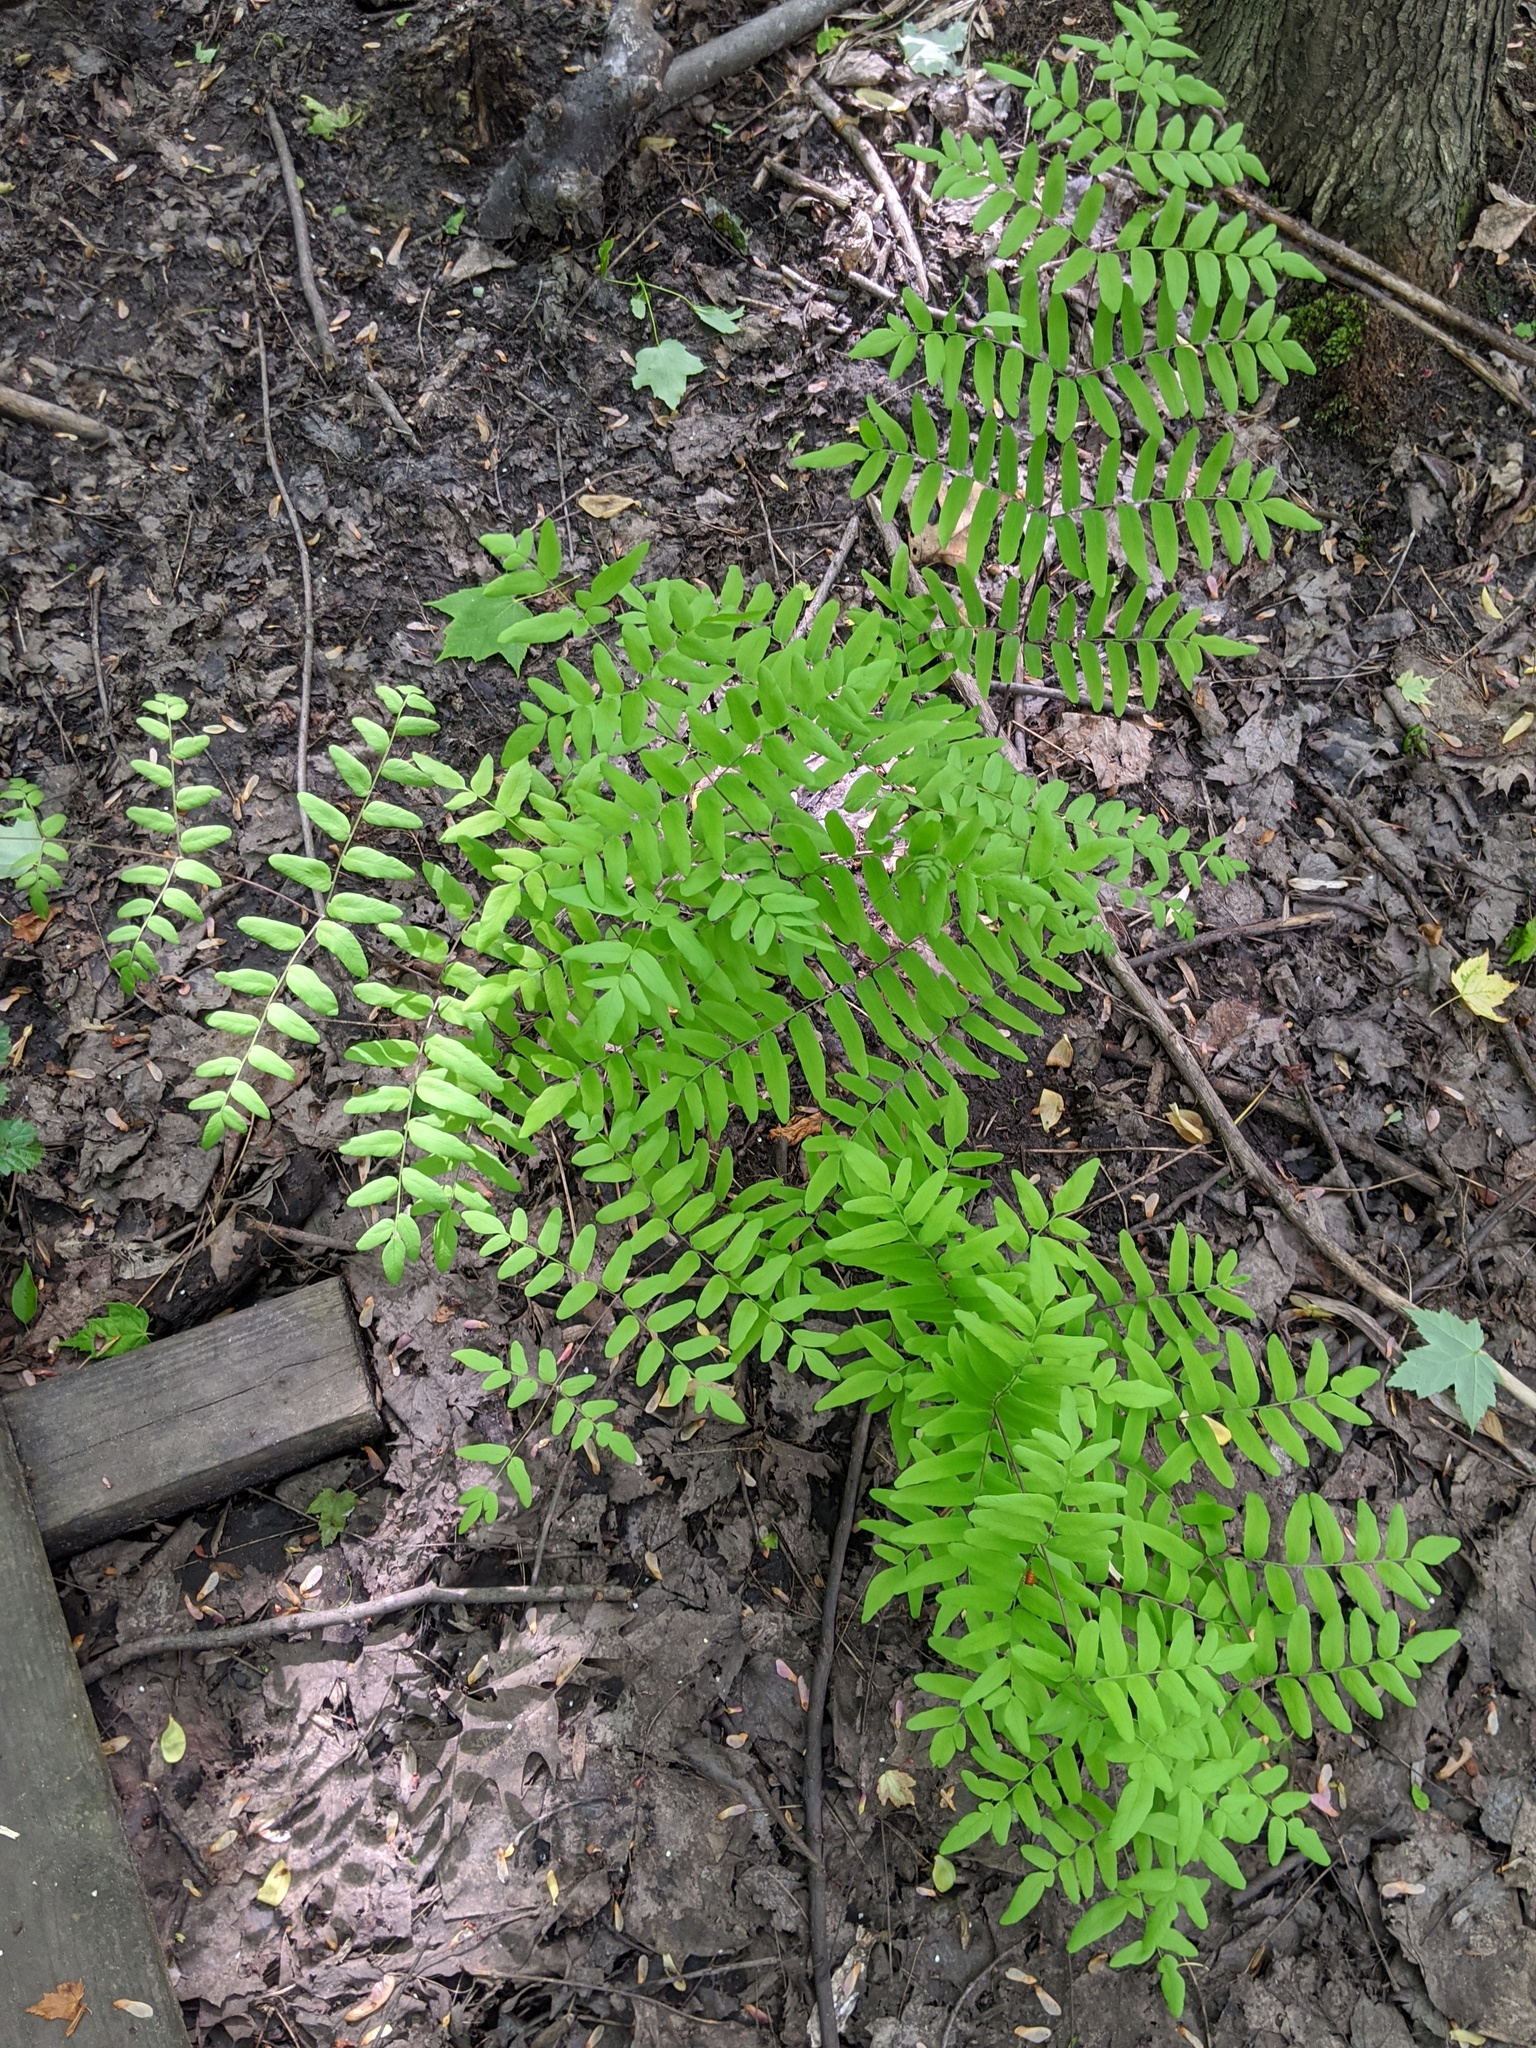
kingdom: Plantae
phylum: Tracheophyta
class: Polypodiopsida
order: Osmundales
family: Osmundaceae
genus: Osmunda
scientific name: Osmunda spectabilis
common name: American royal fern
